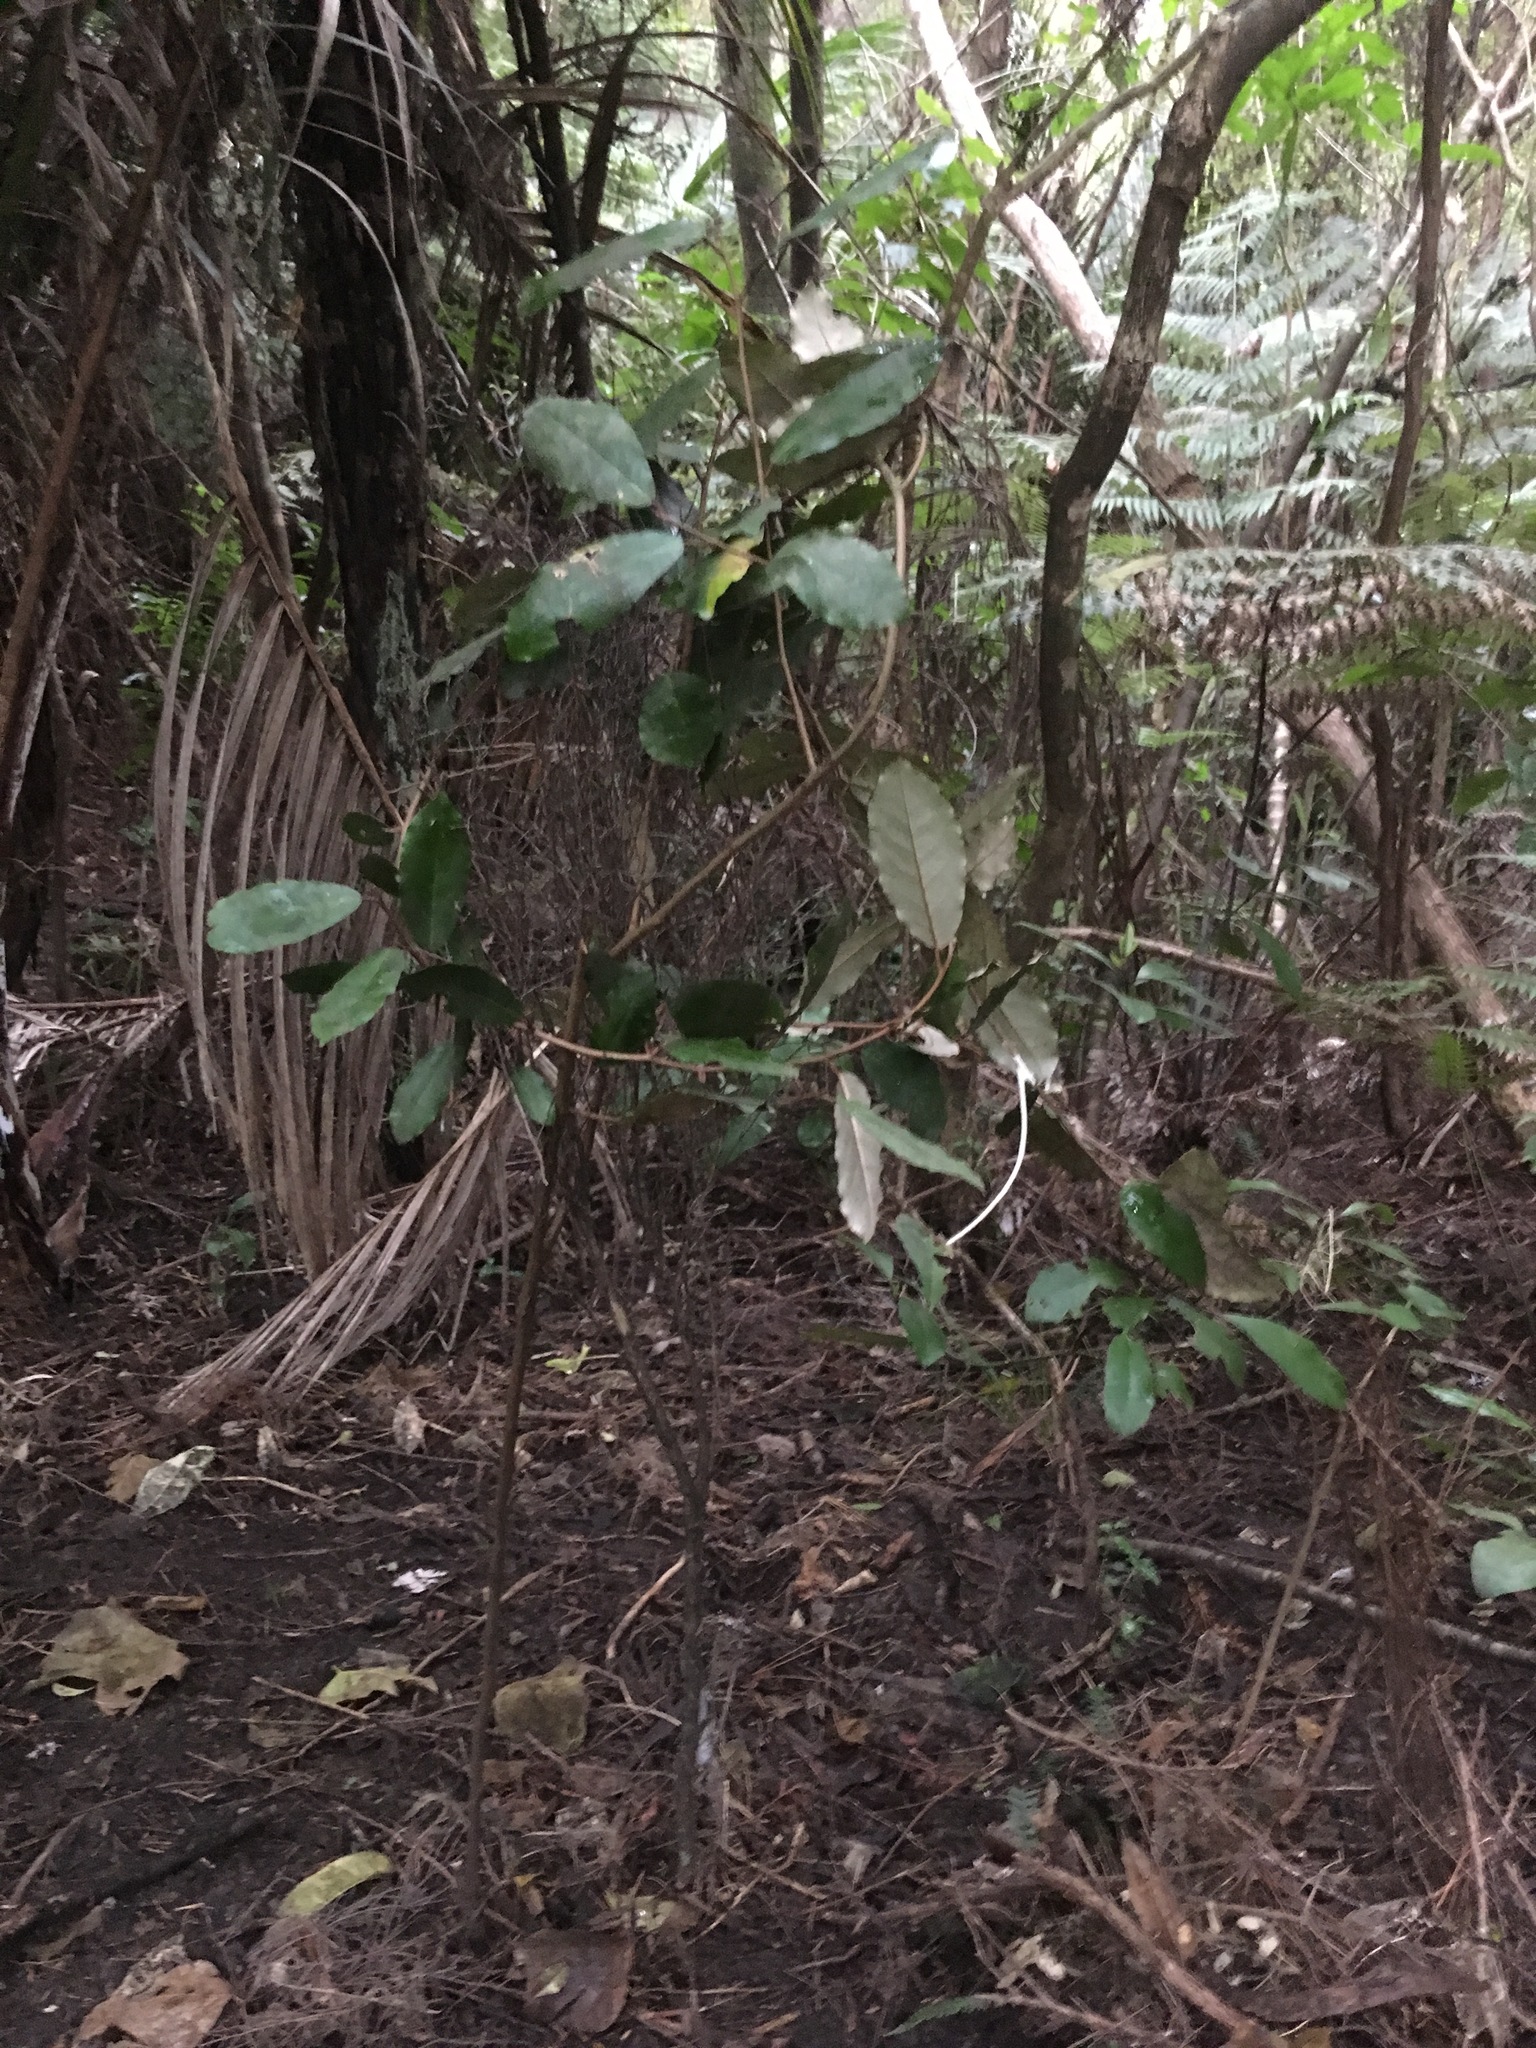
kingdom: Plantae
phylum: Tracheophyta
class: Magnoliopsida
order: Rosales
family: Elaeagnaceae
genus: Elaeagnus
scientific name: Elaeagnus reflexa
